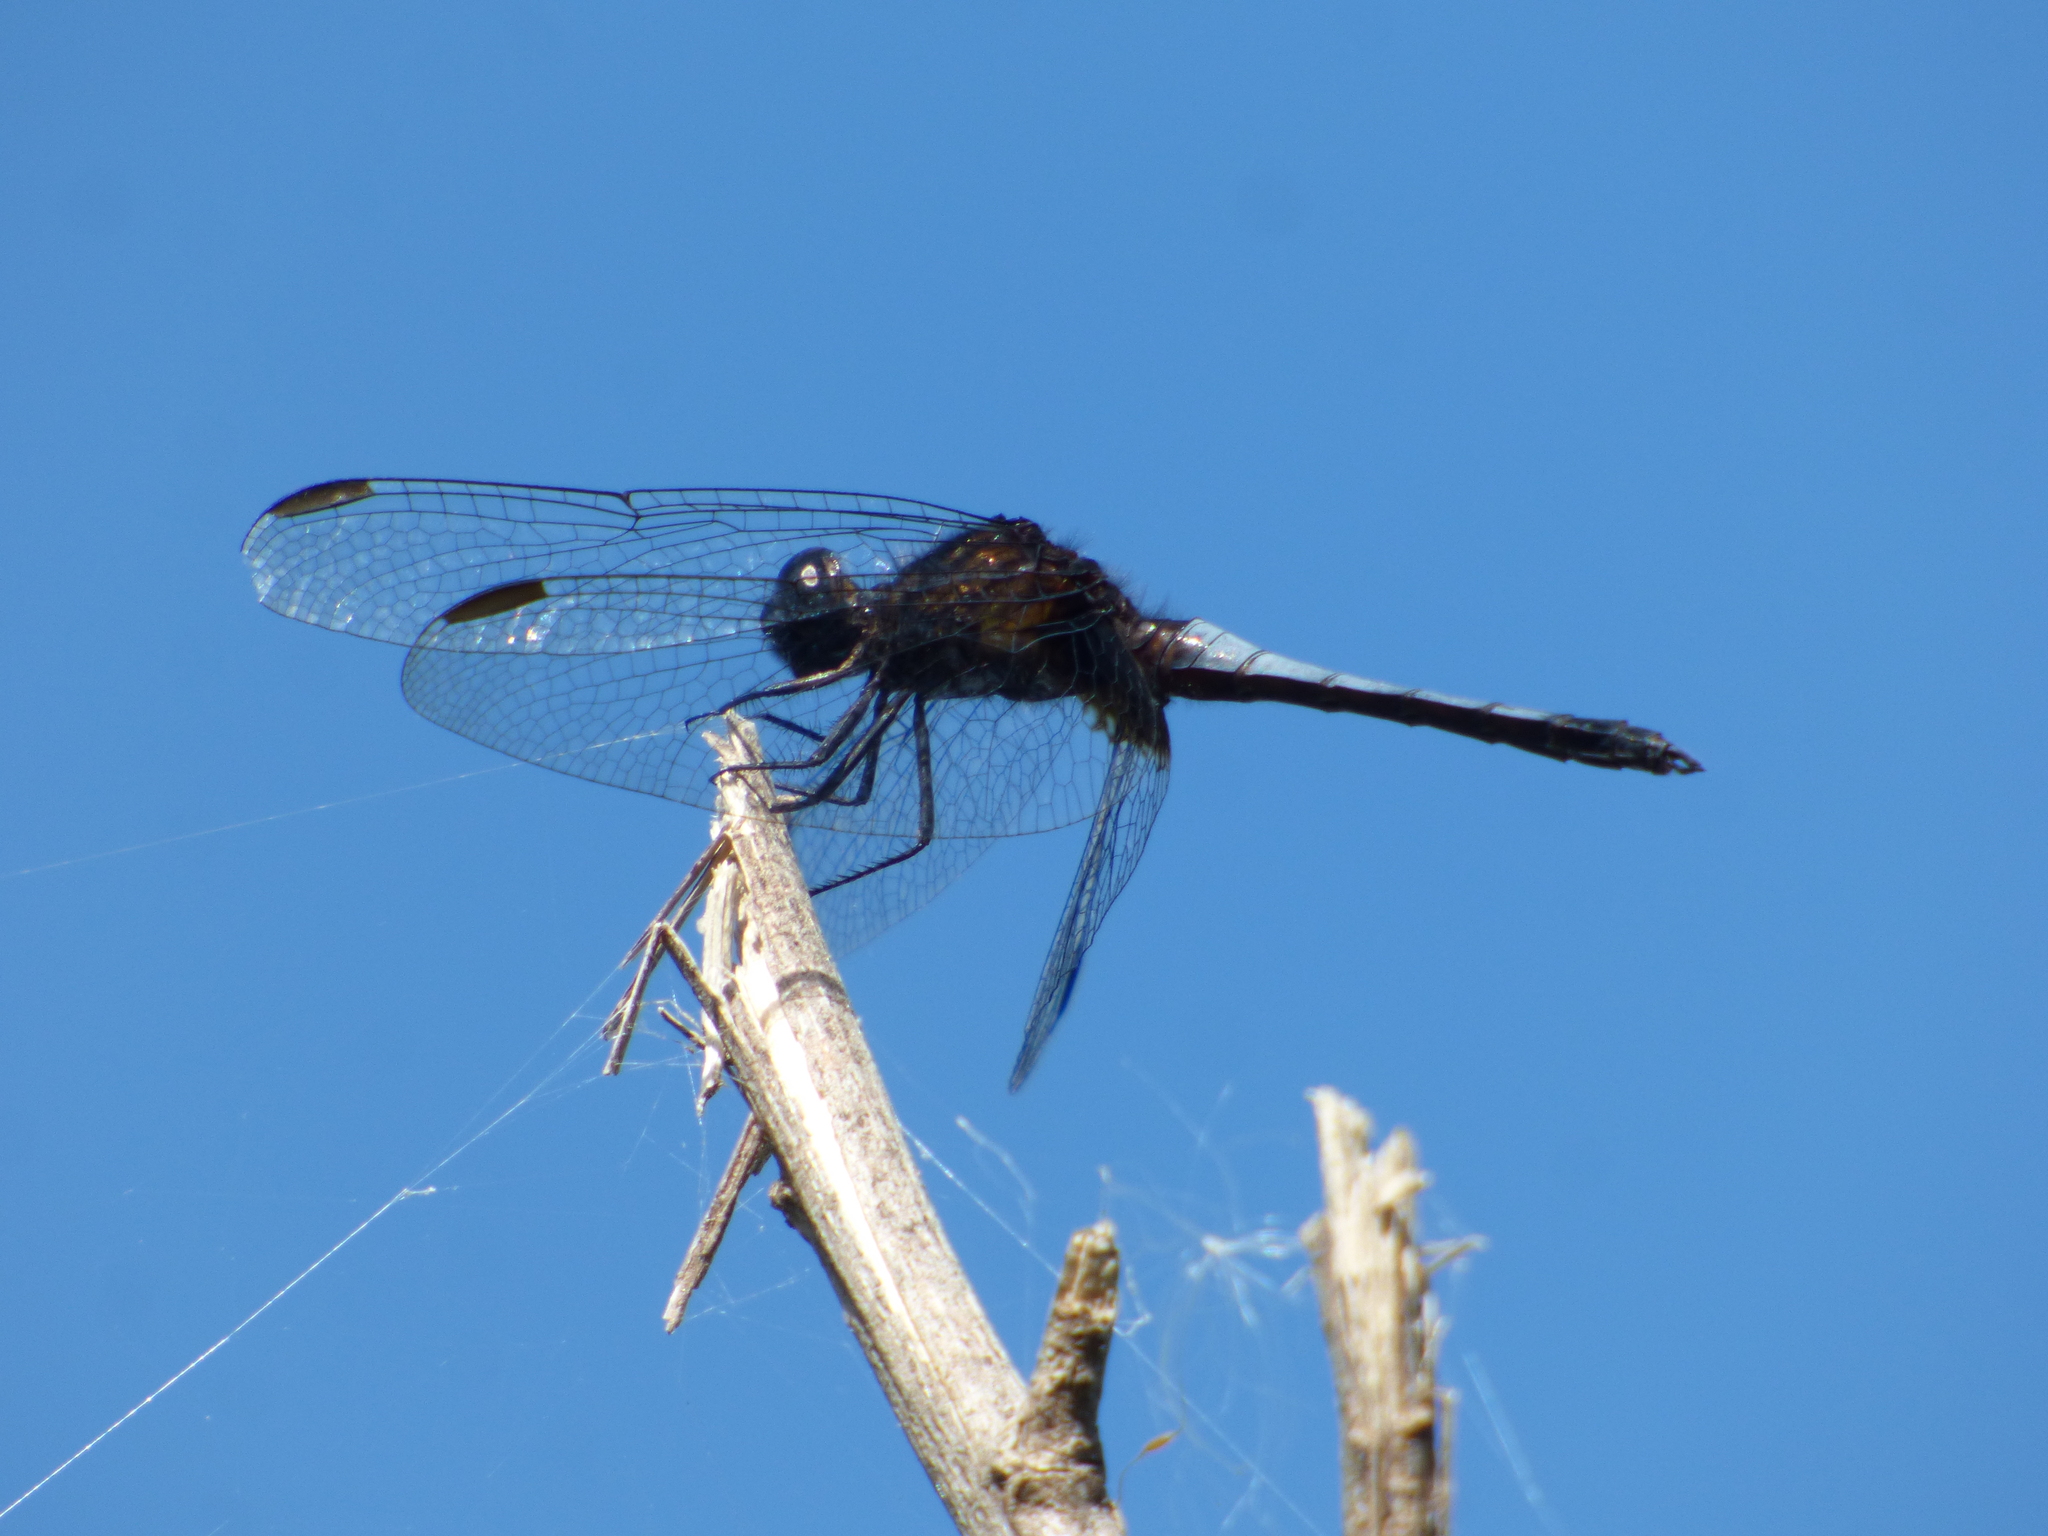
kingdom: Animalia
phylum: Arthropoda
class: Insecta
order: Odonata
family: Libellulidae
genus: Erythrodiplax
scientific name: Erythrodiplax media
